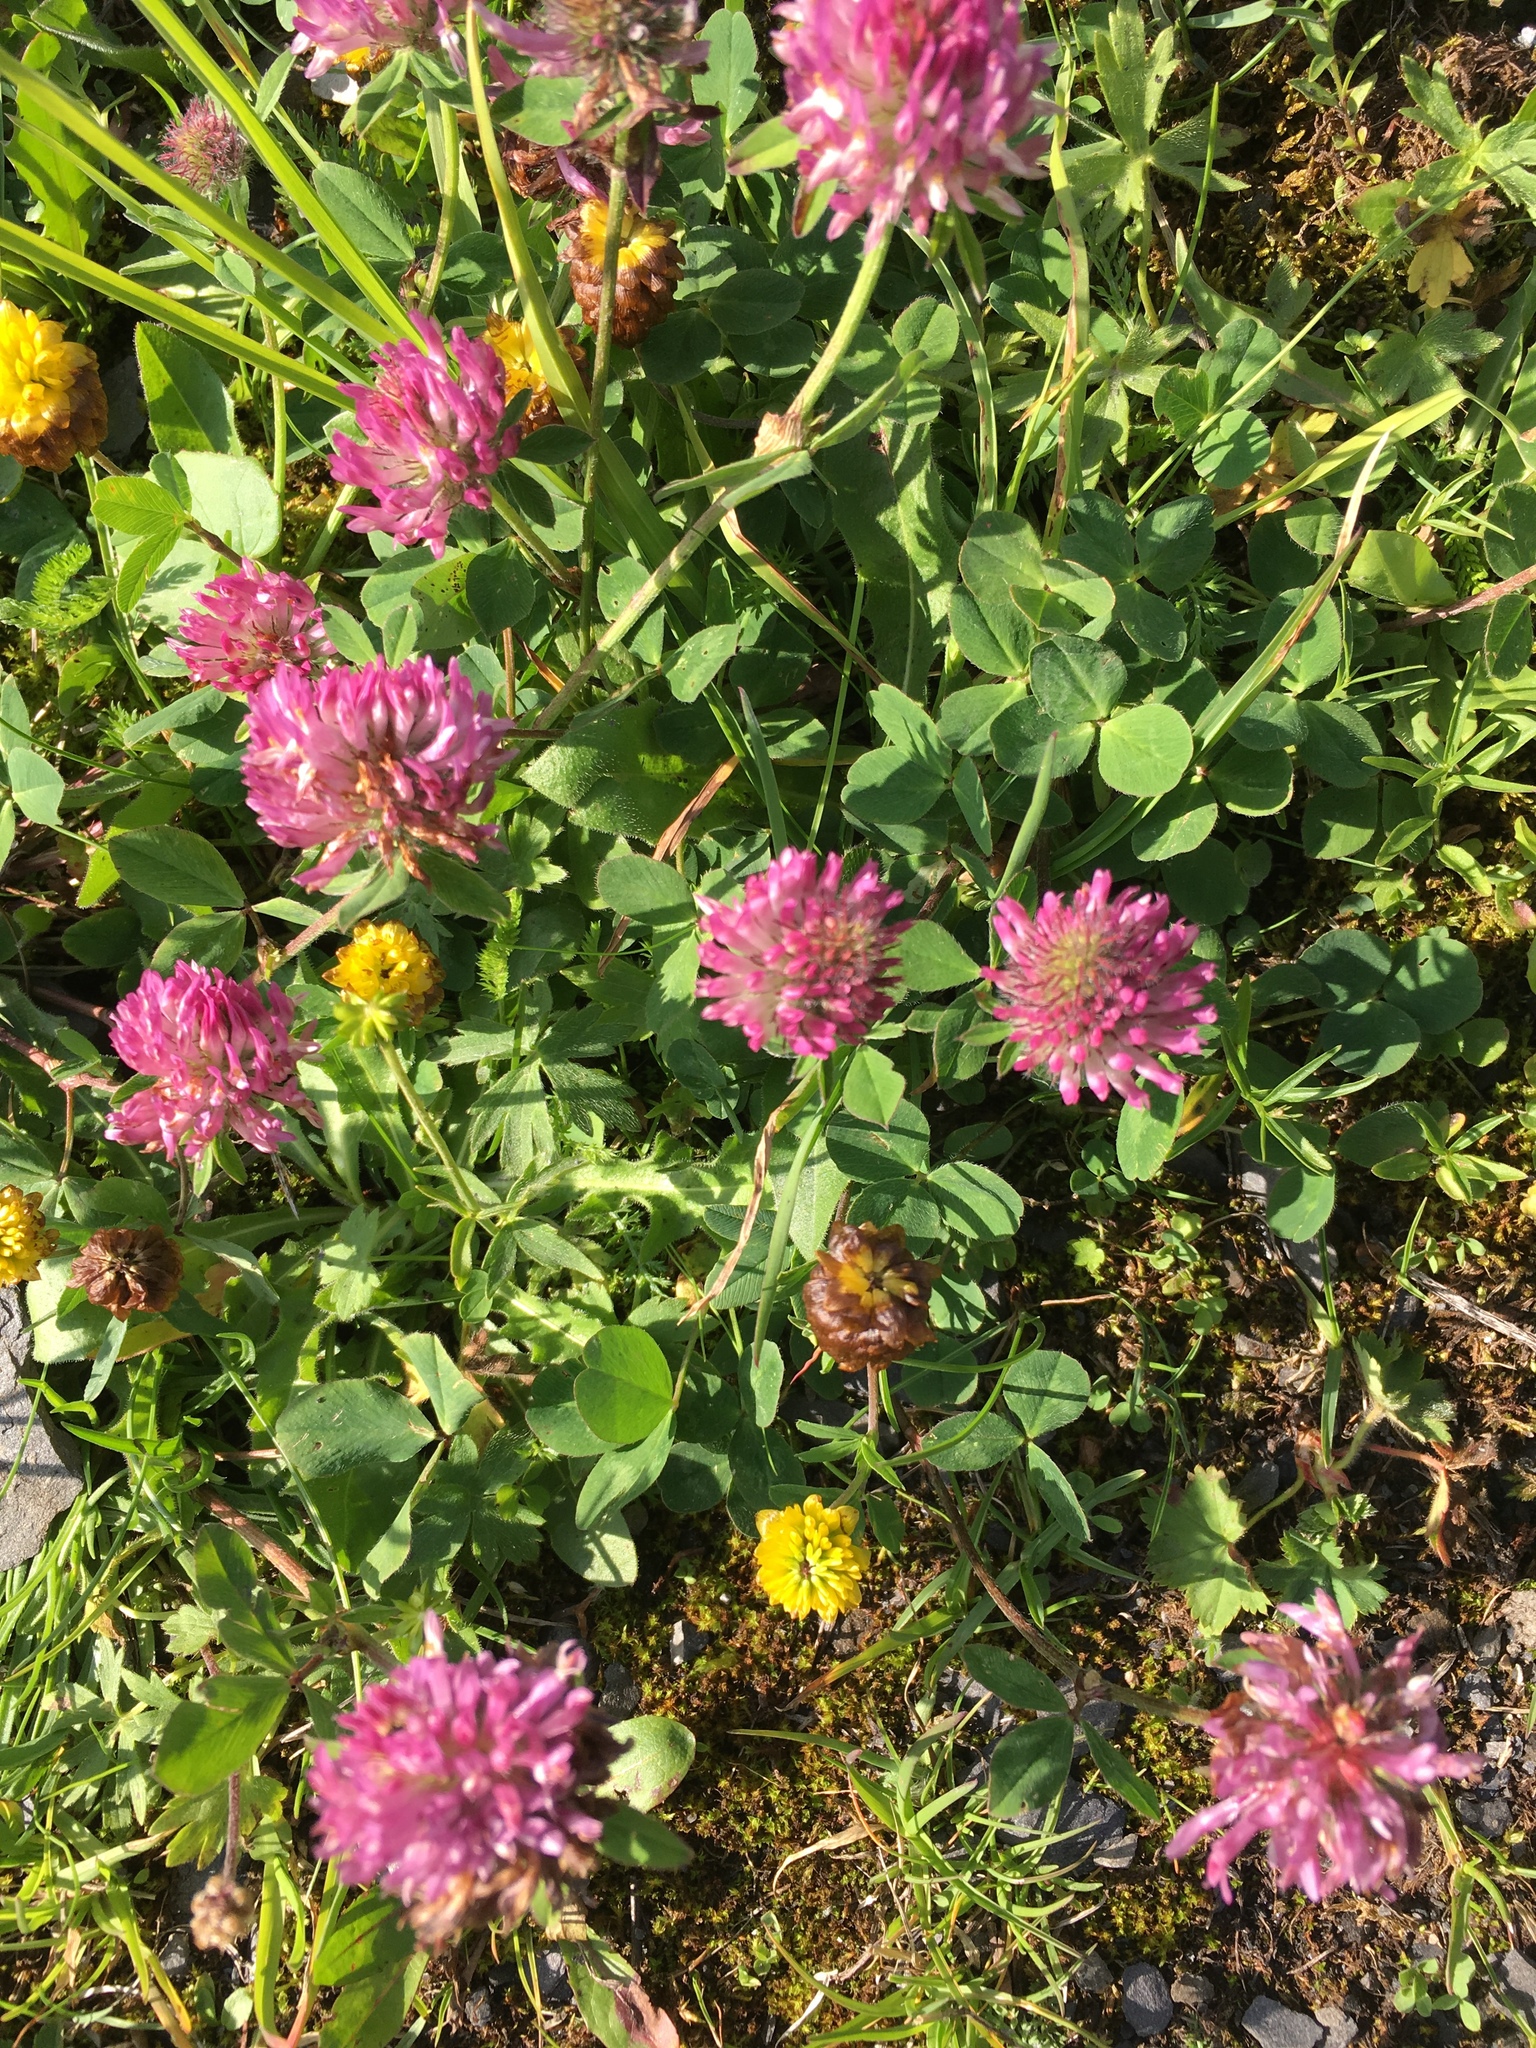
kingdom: Plantae
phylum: Tracheophyta
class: Magnoliopsida
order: Fabales
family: Fabaceae
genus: Trifolium
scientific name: Trifolium pratense
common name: Red clover
